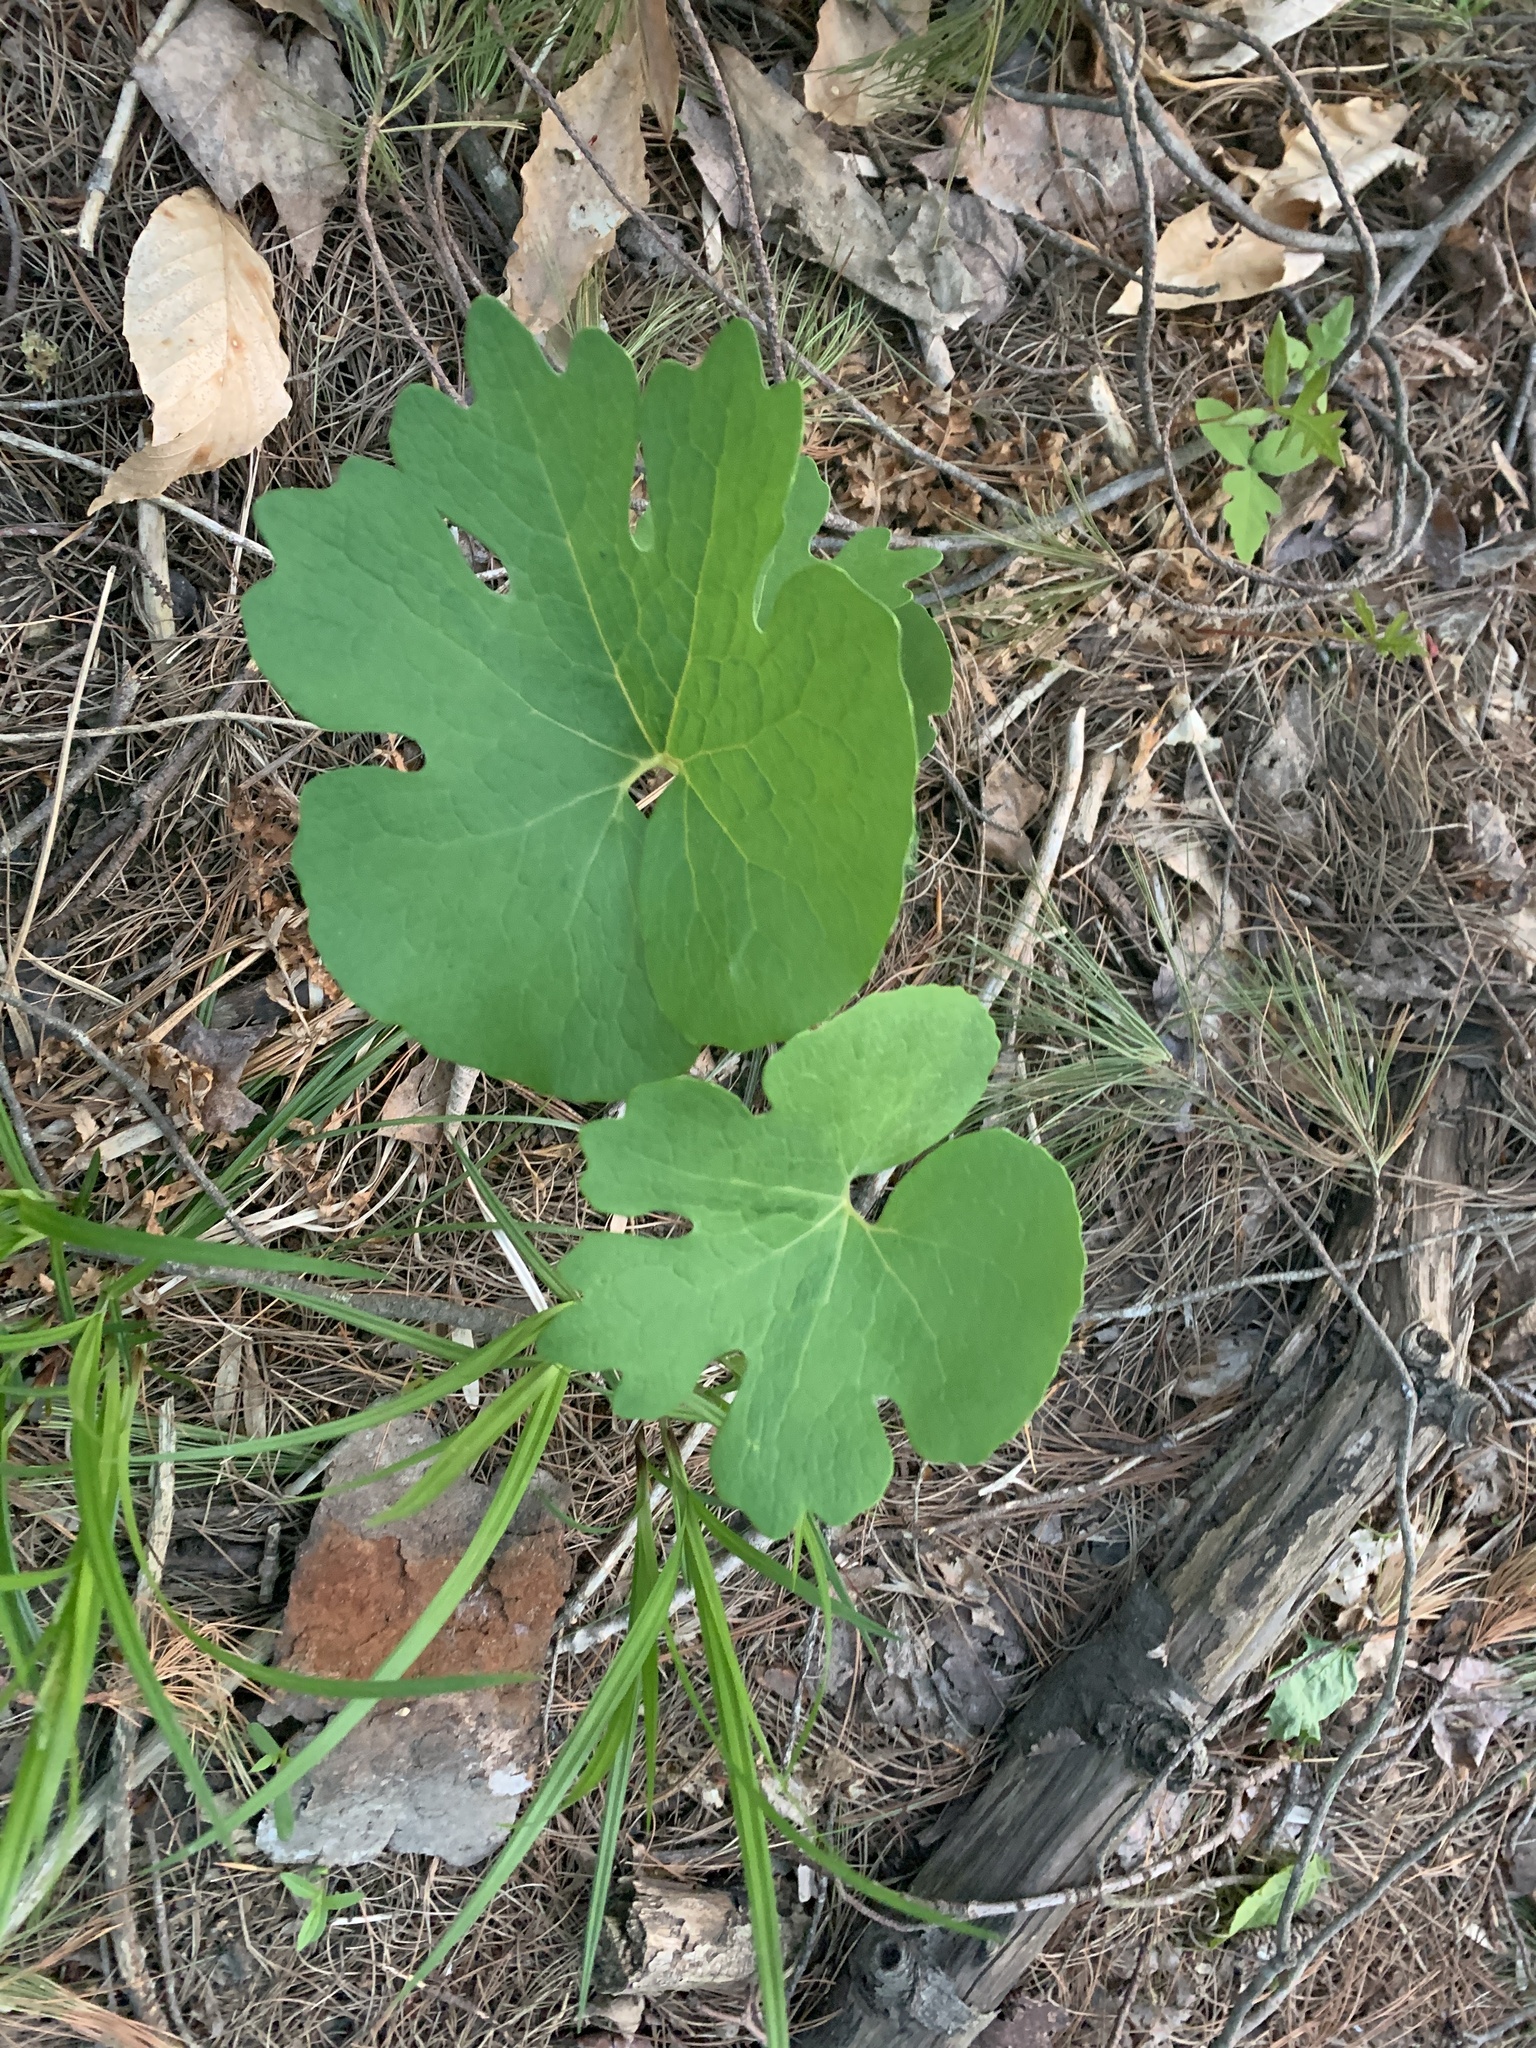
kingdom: Plantae
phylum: Tracheophyta
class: Magnoliopsida
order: Ranunculales
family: Papaveraceae
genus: Sanguinaria
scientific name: Sanguinaria canadensis
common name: Bloodroot
